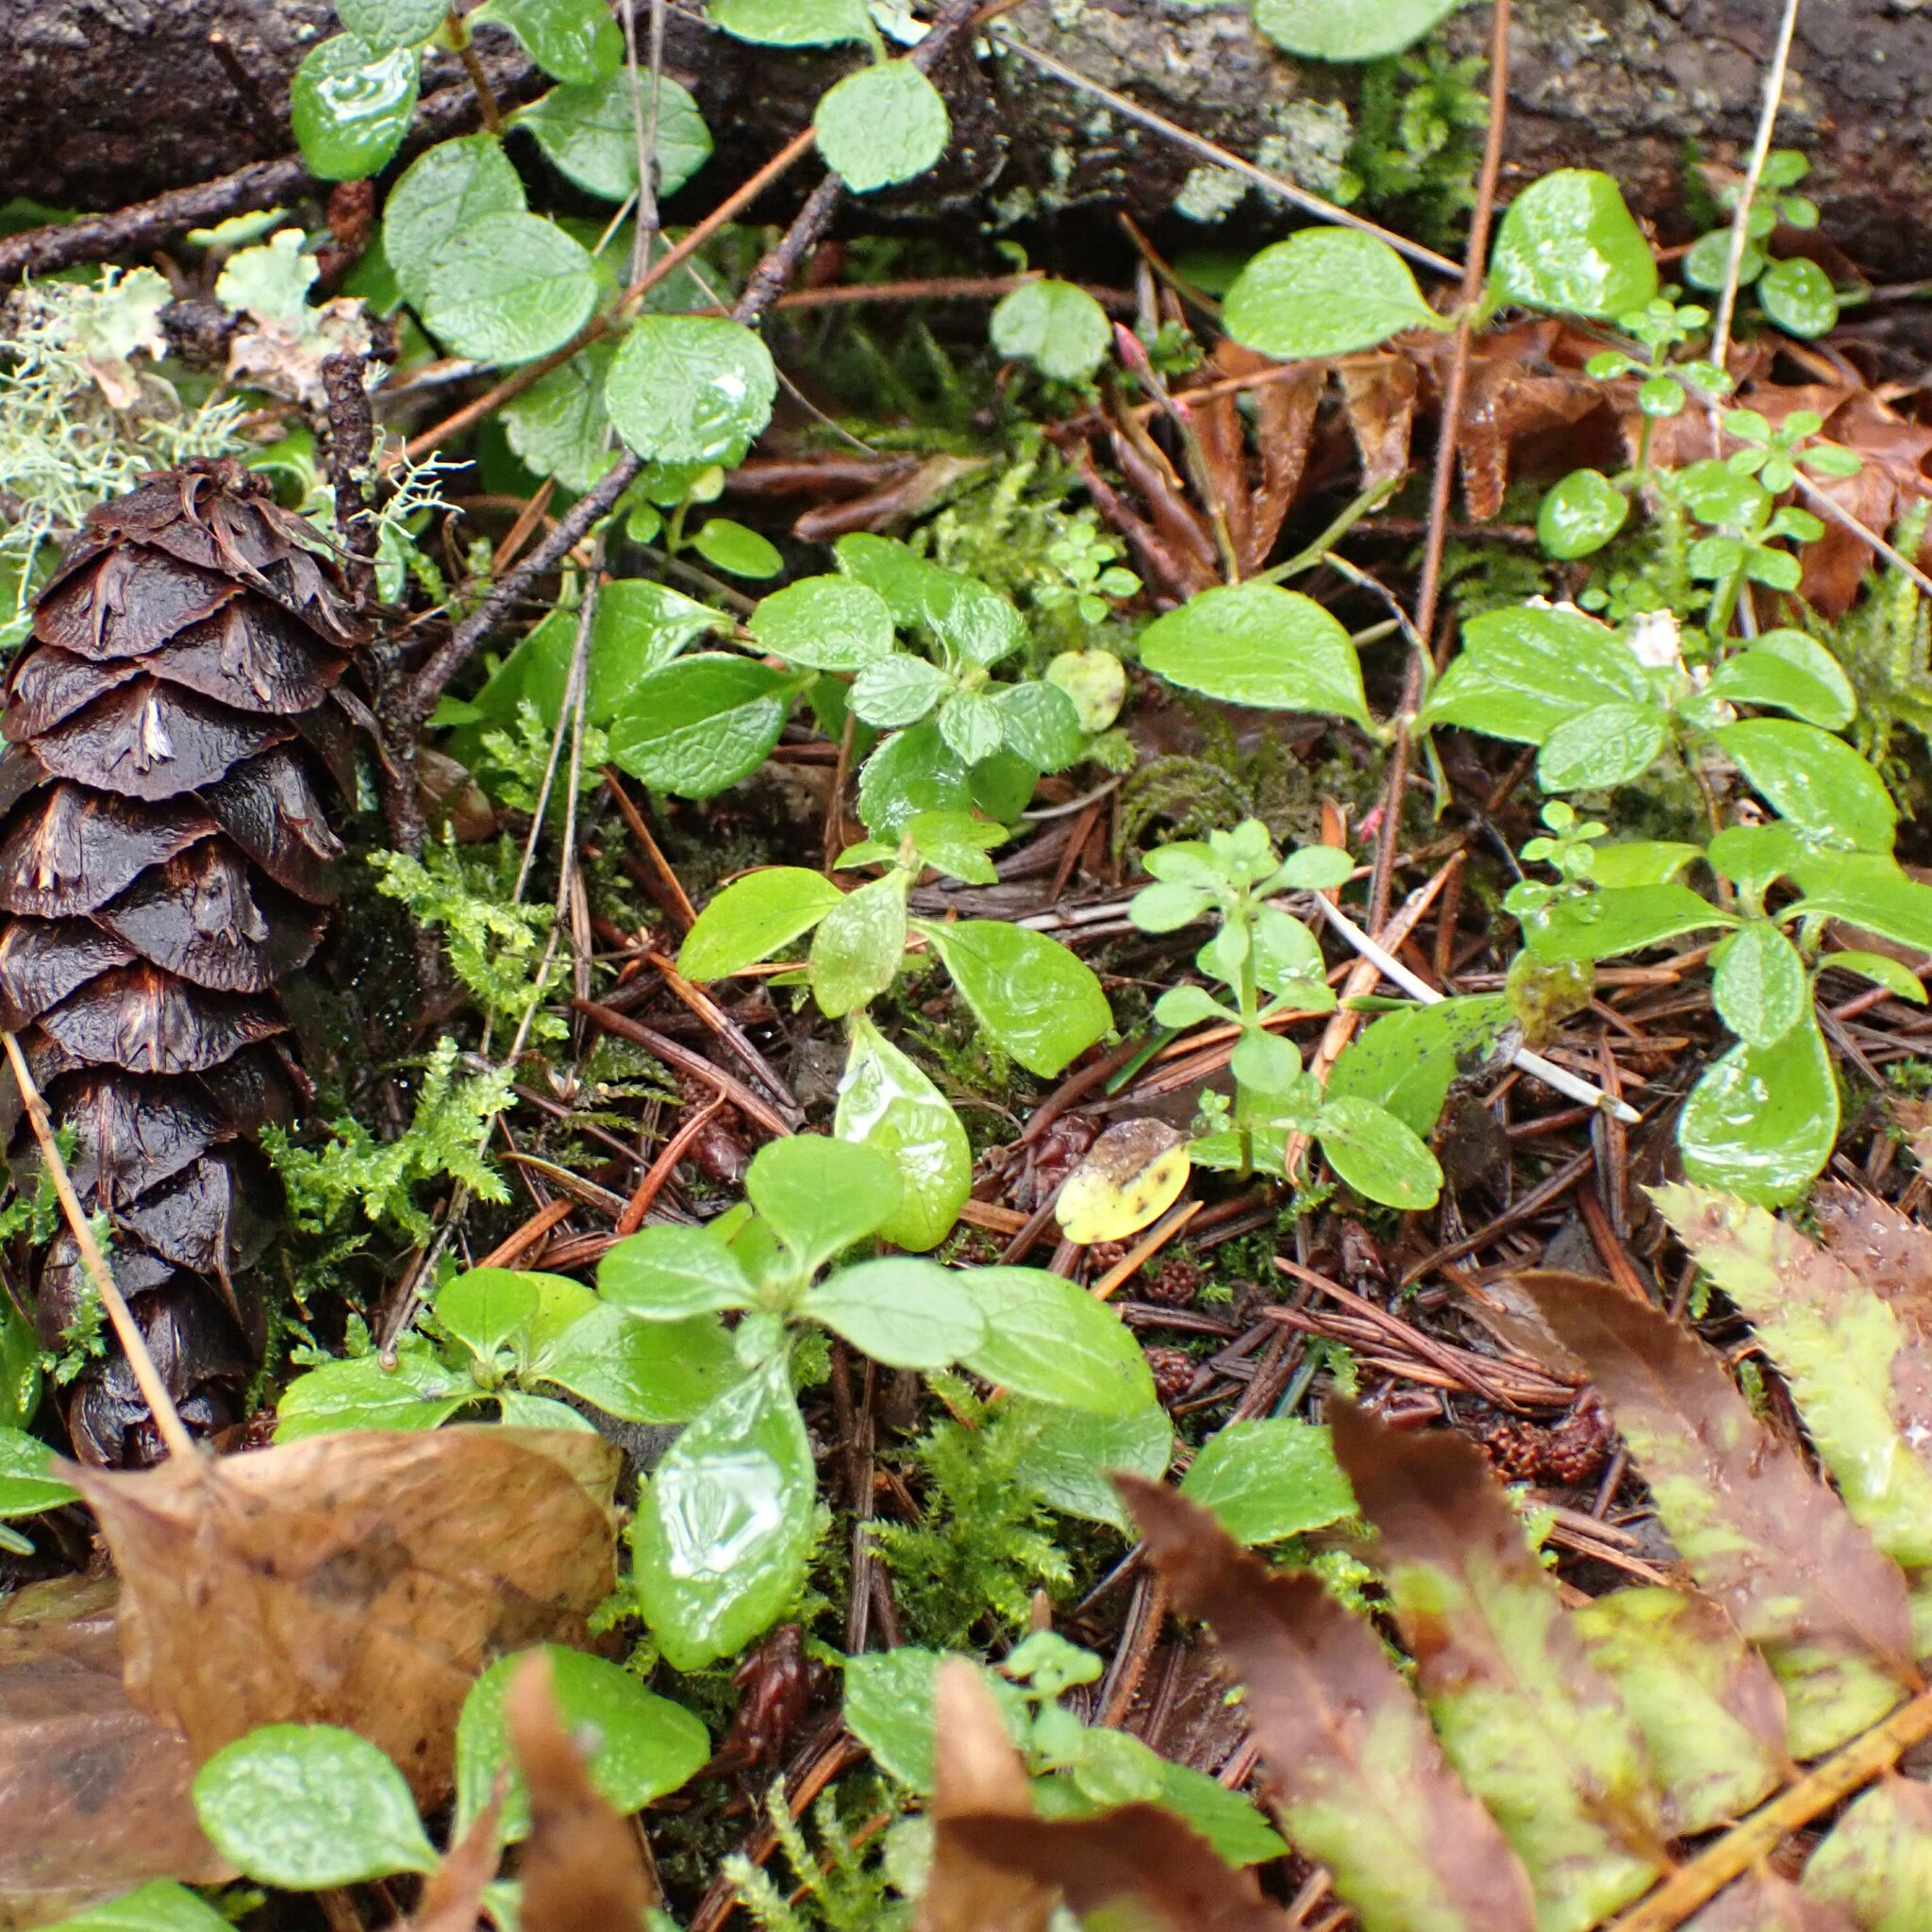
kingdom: Plantae
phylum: Tracheophyta
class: Magnoliopsida
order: Dipsacales
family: Caprifoliaceae
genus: Linnaea
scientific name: Linnaea borealis
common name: Twinflower
